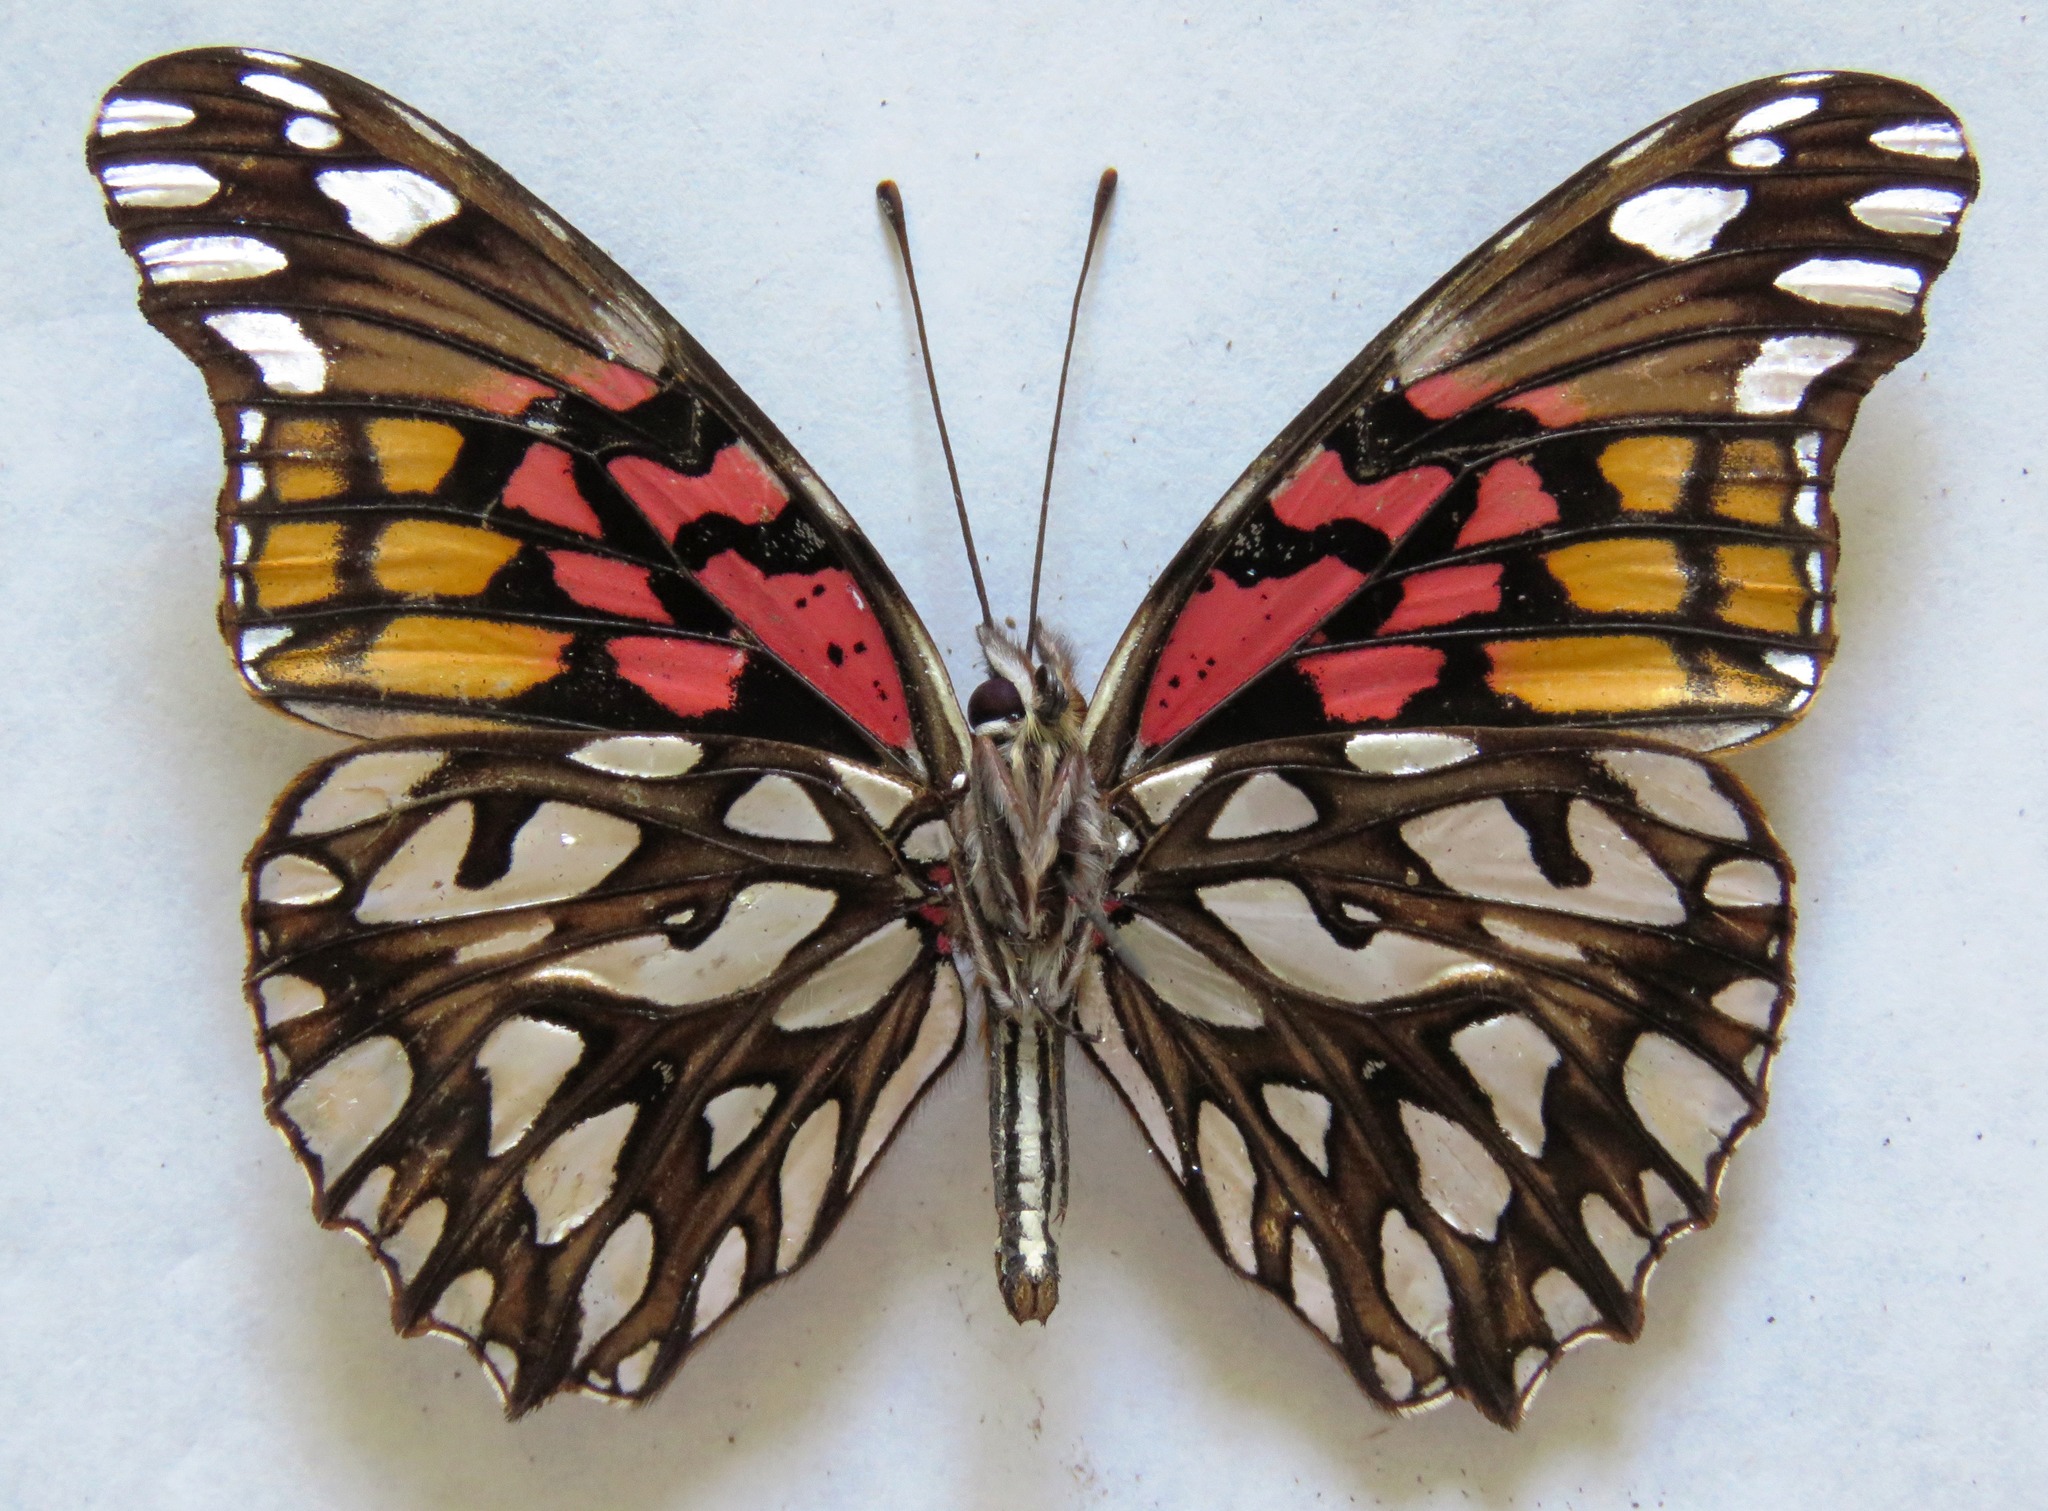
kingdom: Animalia
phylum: Arthropoda
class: Insecta
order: Lepidoptera
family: Nymphalidae
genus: Dione
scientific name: Dione moneta
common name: Mexican silverspot
